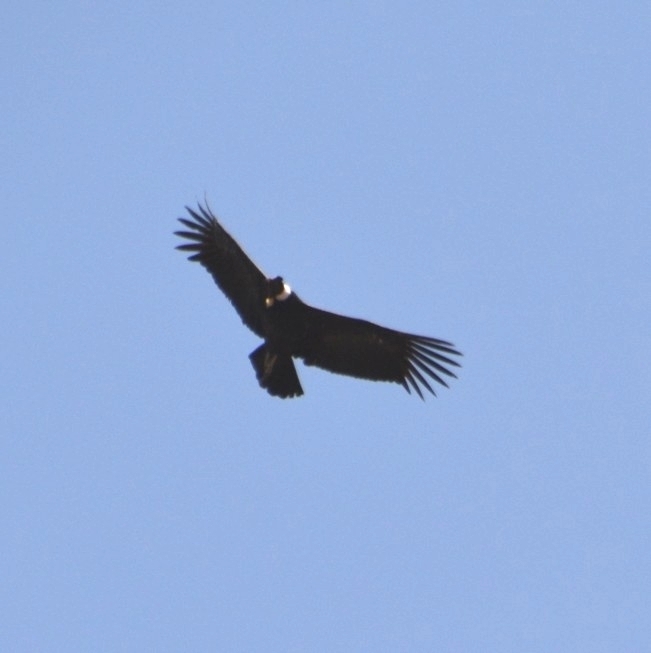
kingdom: Animalia
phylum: Chordata
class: Aves
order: Accipitriformes
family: Cathartidae
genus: Vultur
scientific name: Vultur gryphus
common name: Andean condor
